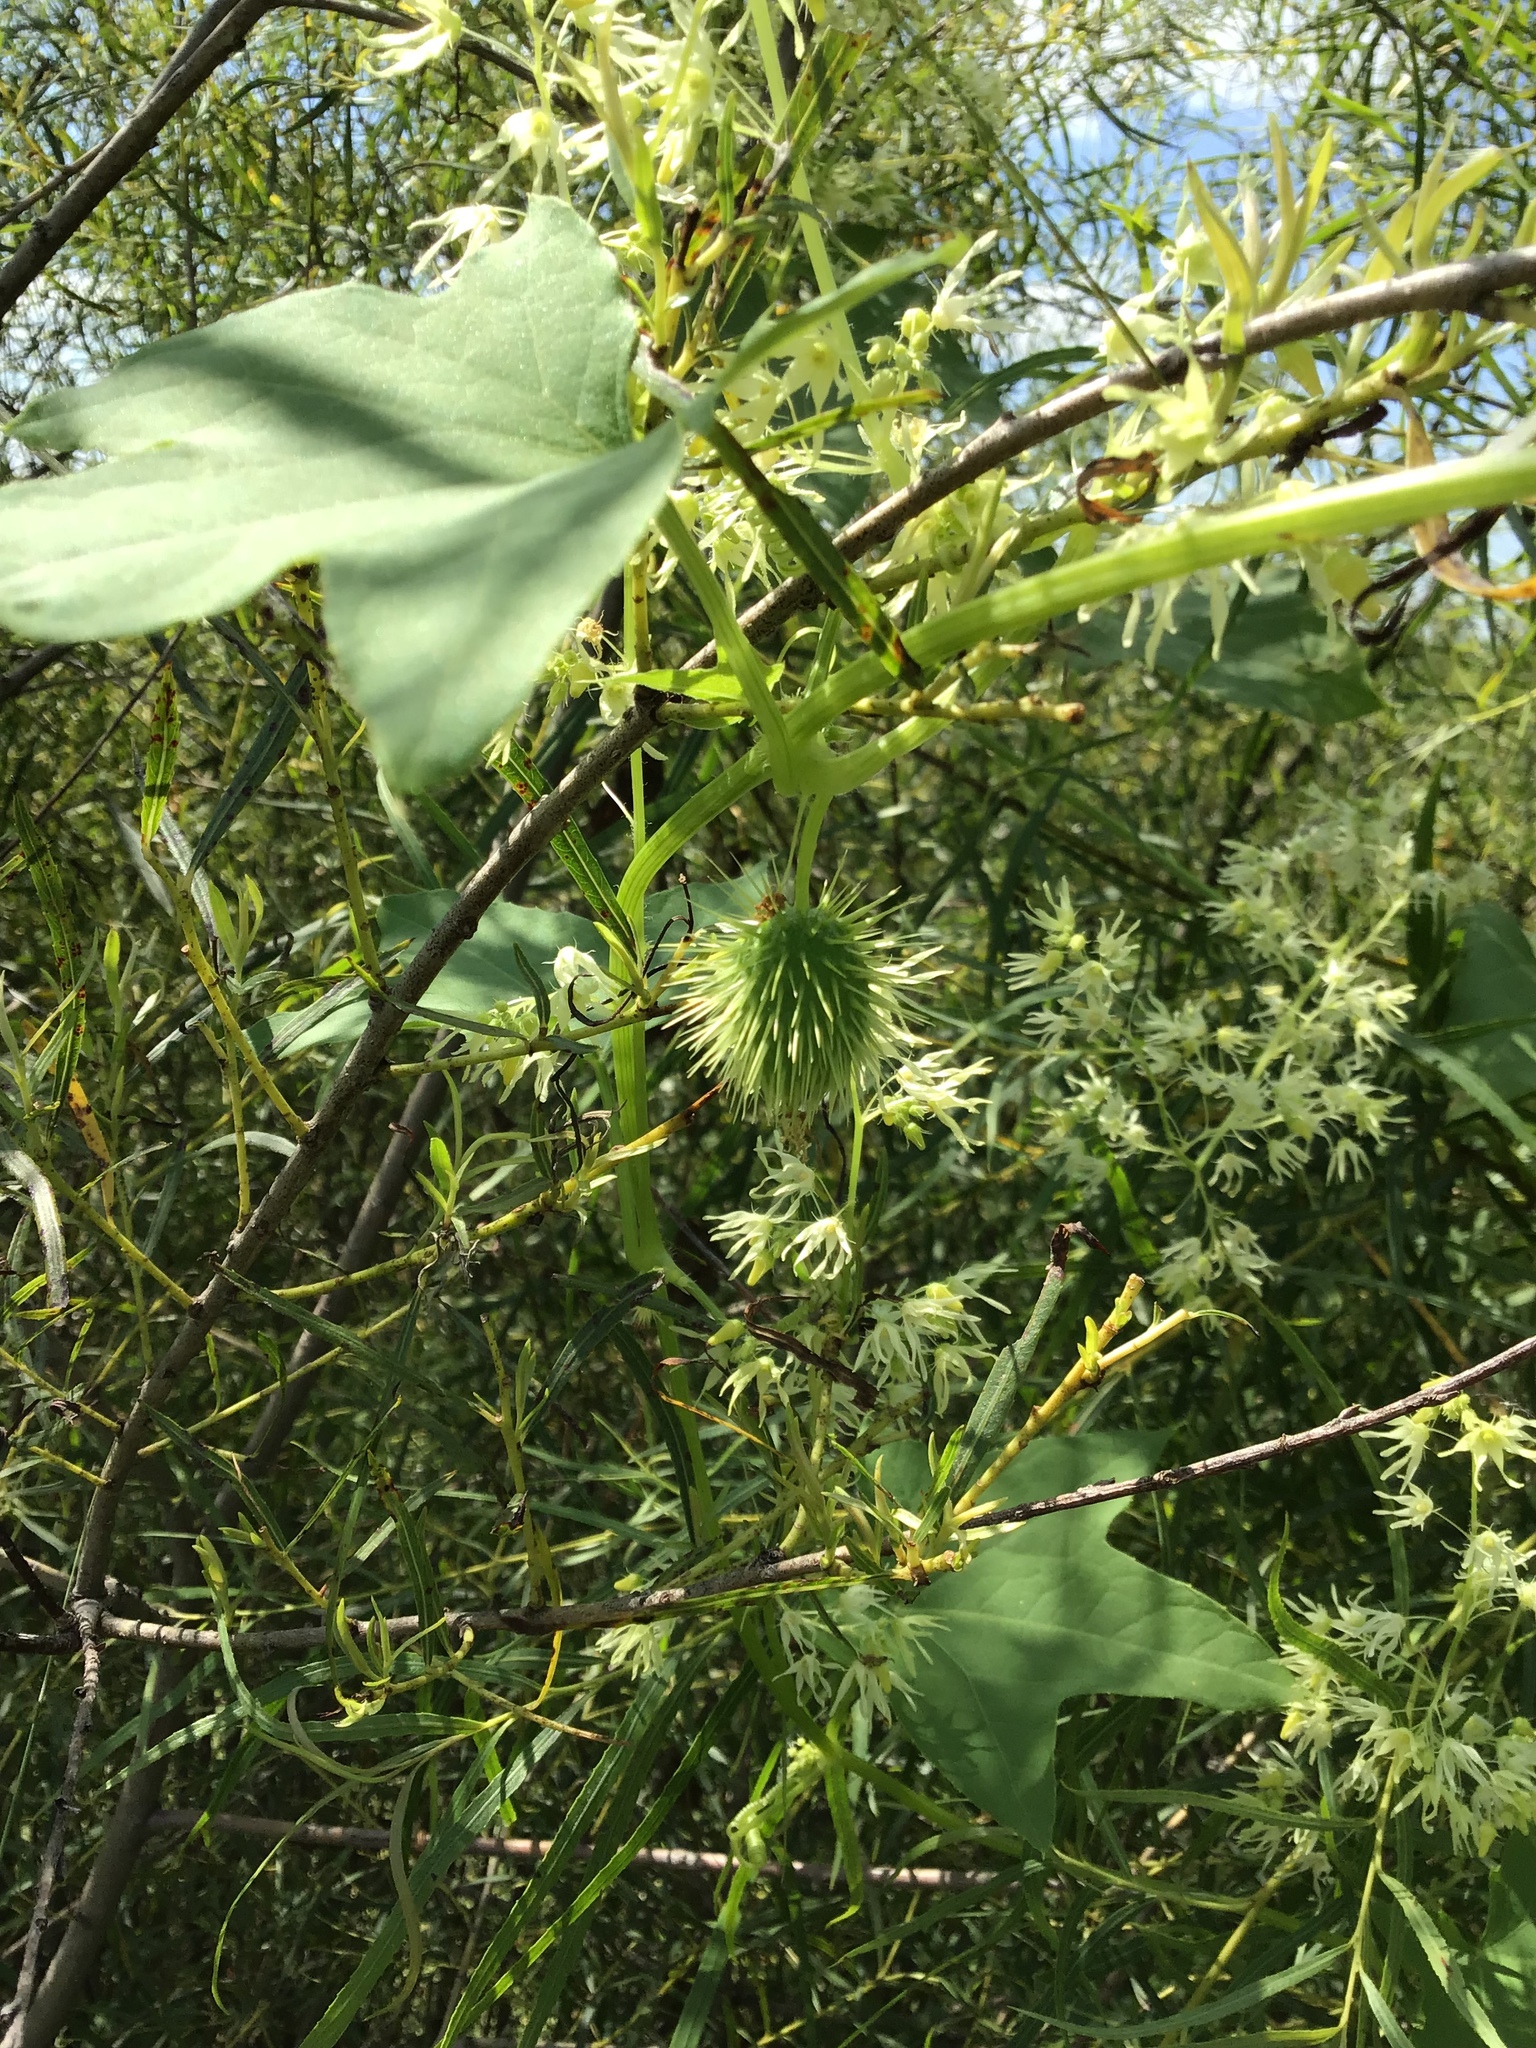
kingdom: Plantae
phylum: Tracheophyta
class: Magnoliopsida
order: Cucurbitales
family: Cucurbitaceae
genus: Echinocystis
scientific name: Echinocystis lobata
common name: Wild cucumber
